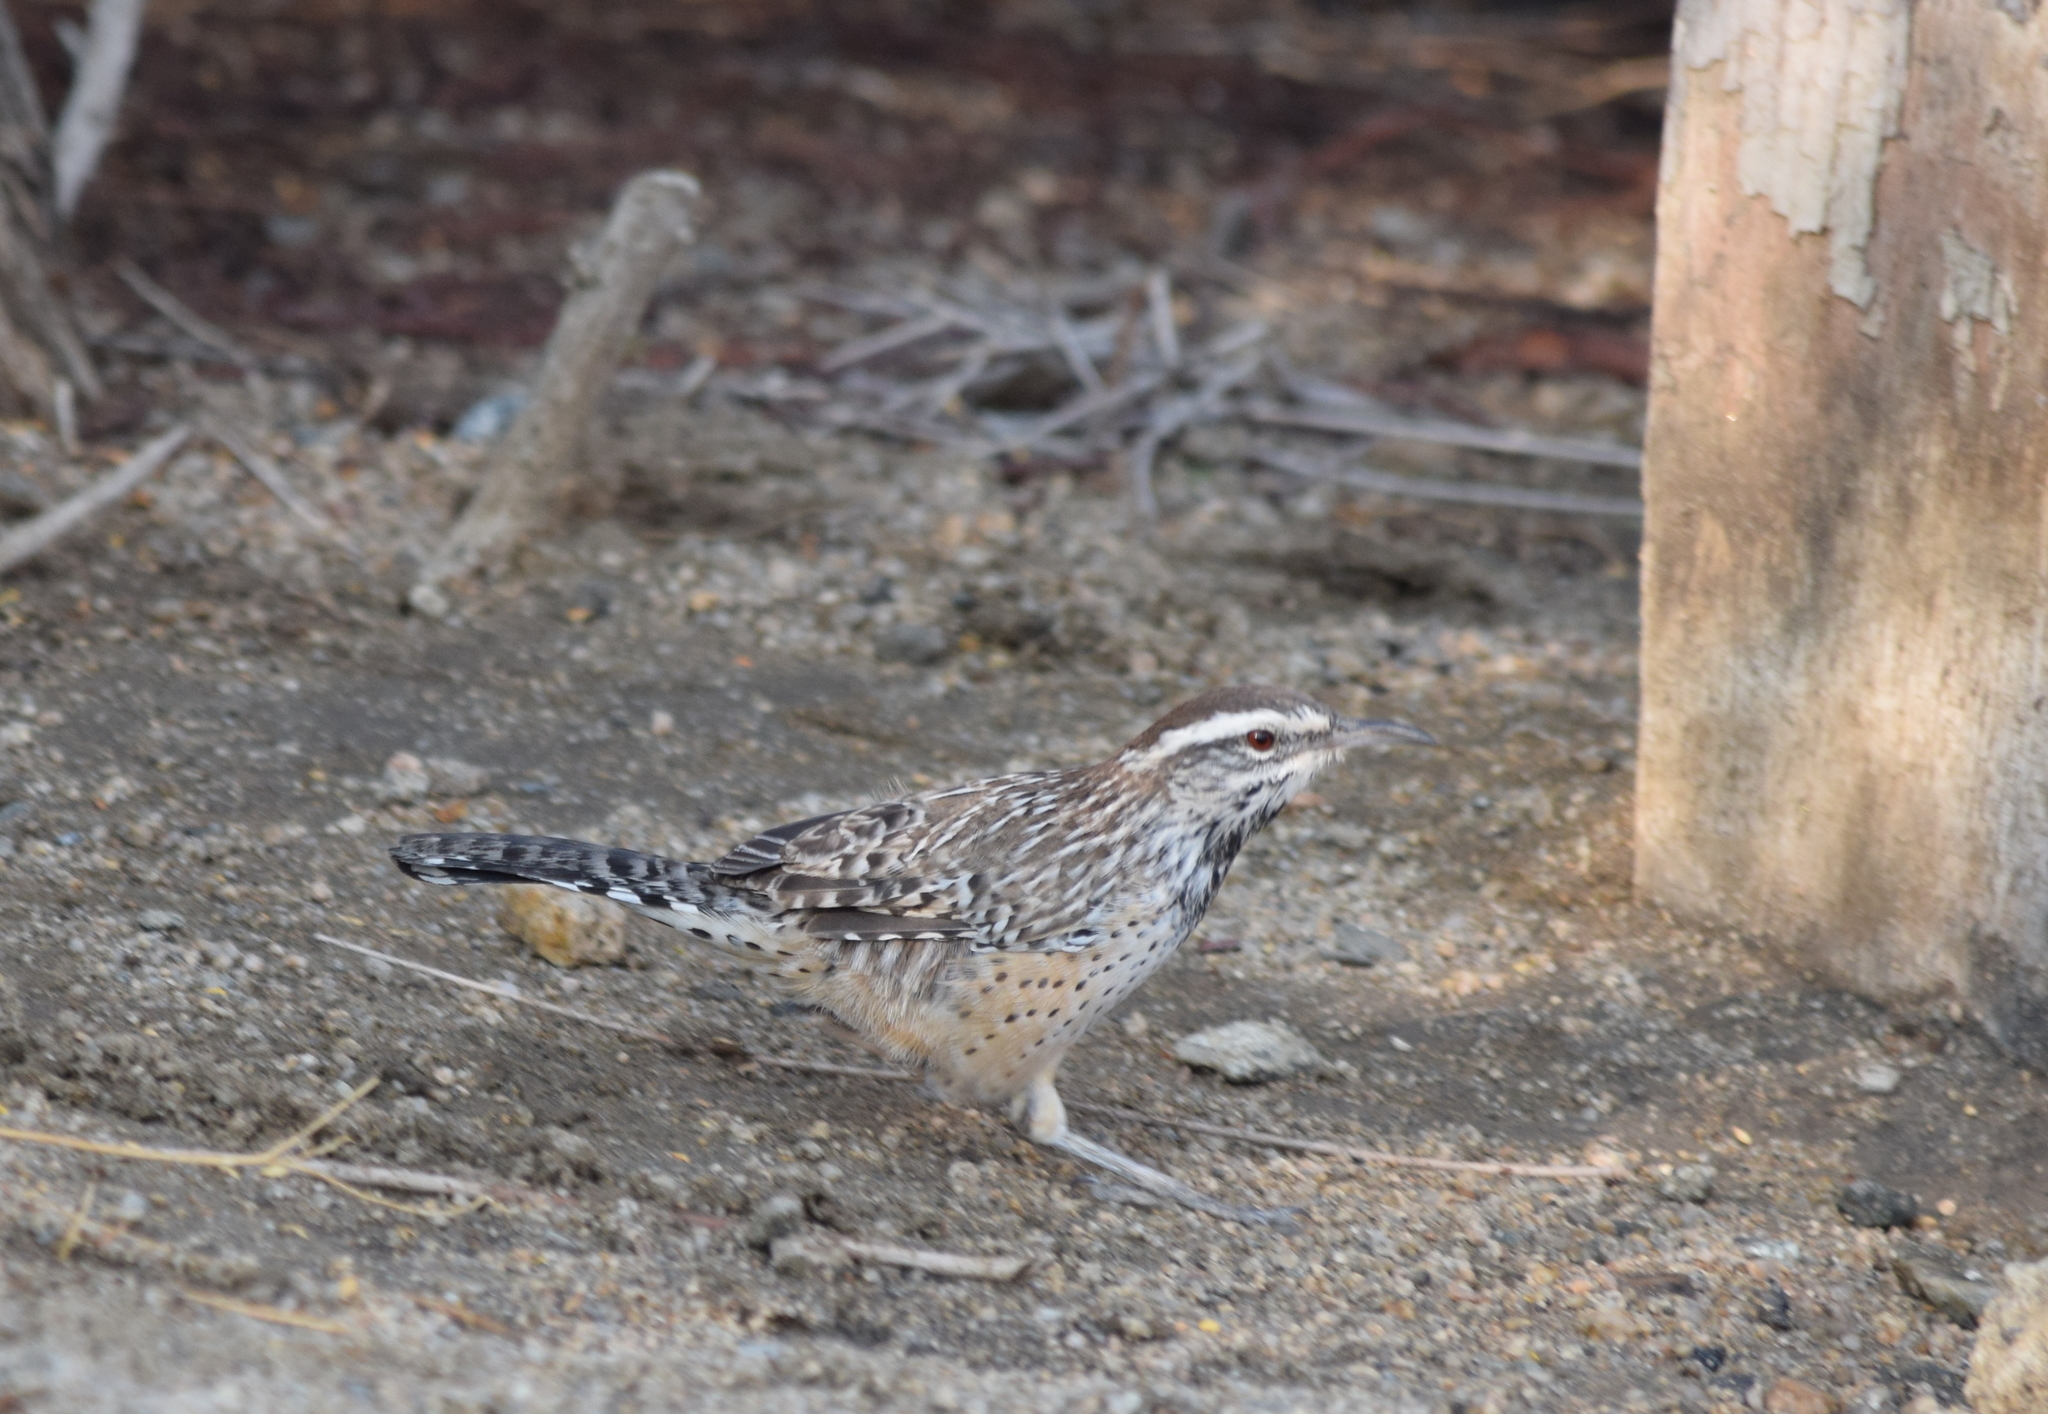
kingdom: Animalia
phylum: Chordata
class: Aves
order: Passeriformes
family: Troglodytidae
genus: Campylorhynchus
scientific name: Campylorhynchus brunneicapillus
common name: Cactus wren
